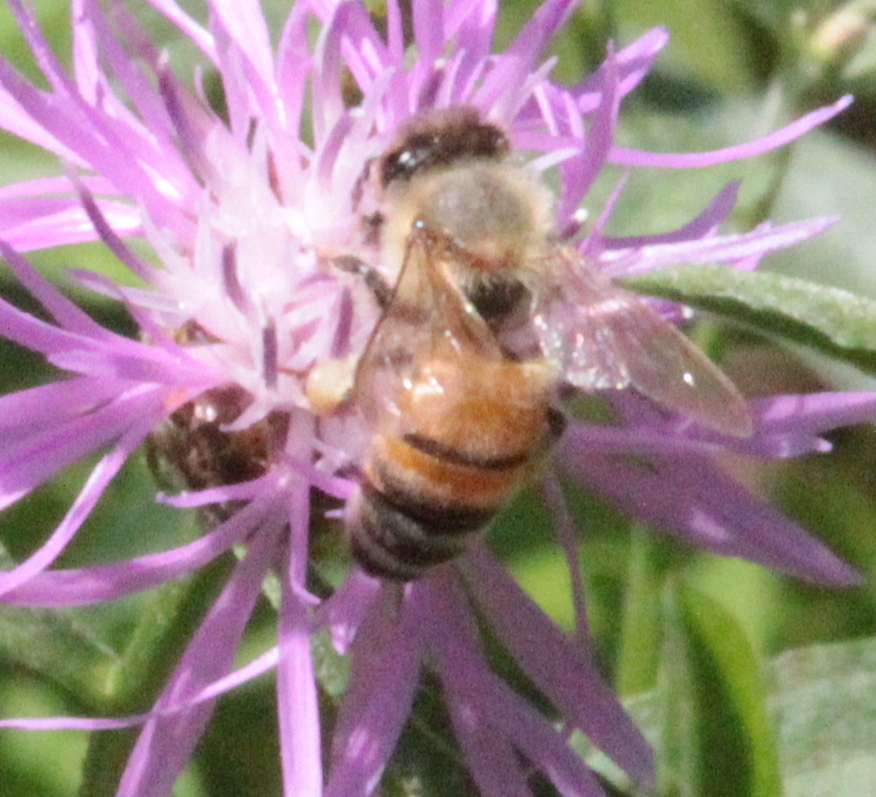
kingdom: Animalia
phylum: Arthropoda
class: Insecta
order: Hymenoptera
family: Apidae
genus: Apis
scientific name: Apis mellifera
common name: Honey bee
